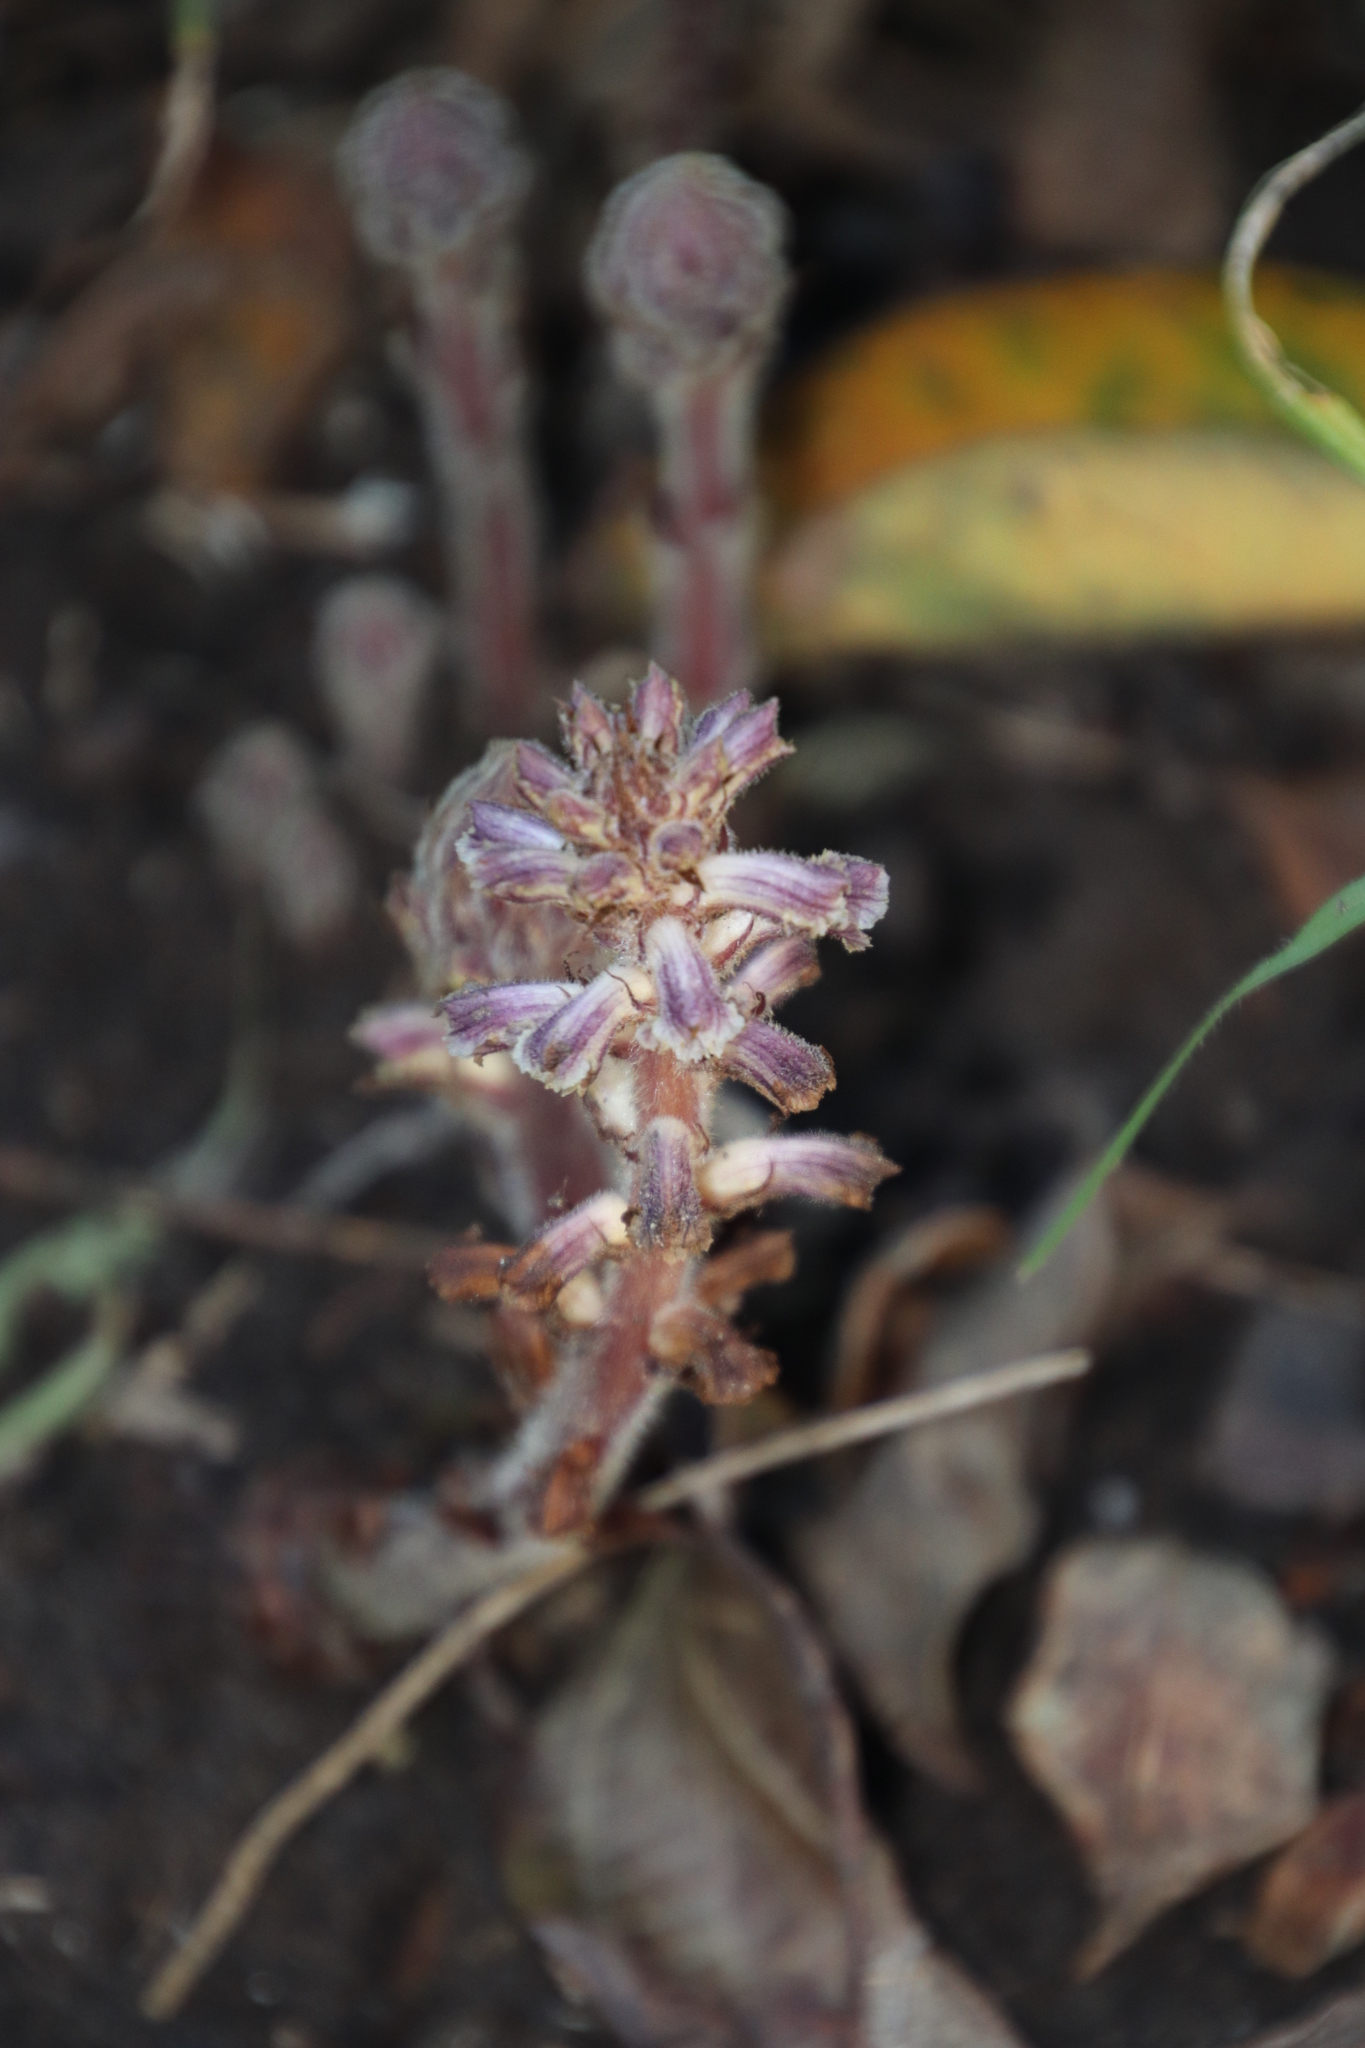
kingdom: Plantae
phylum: Tracheophyta
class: Magnoliopsida
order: Lamiales
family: Orobanchaceae
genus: Orobanche
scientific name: Orobanche minor
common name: Common broomrape
